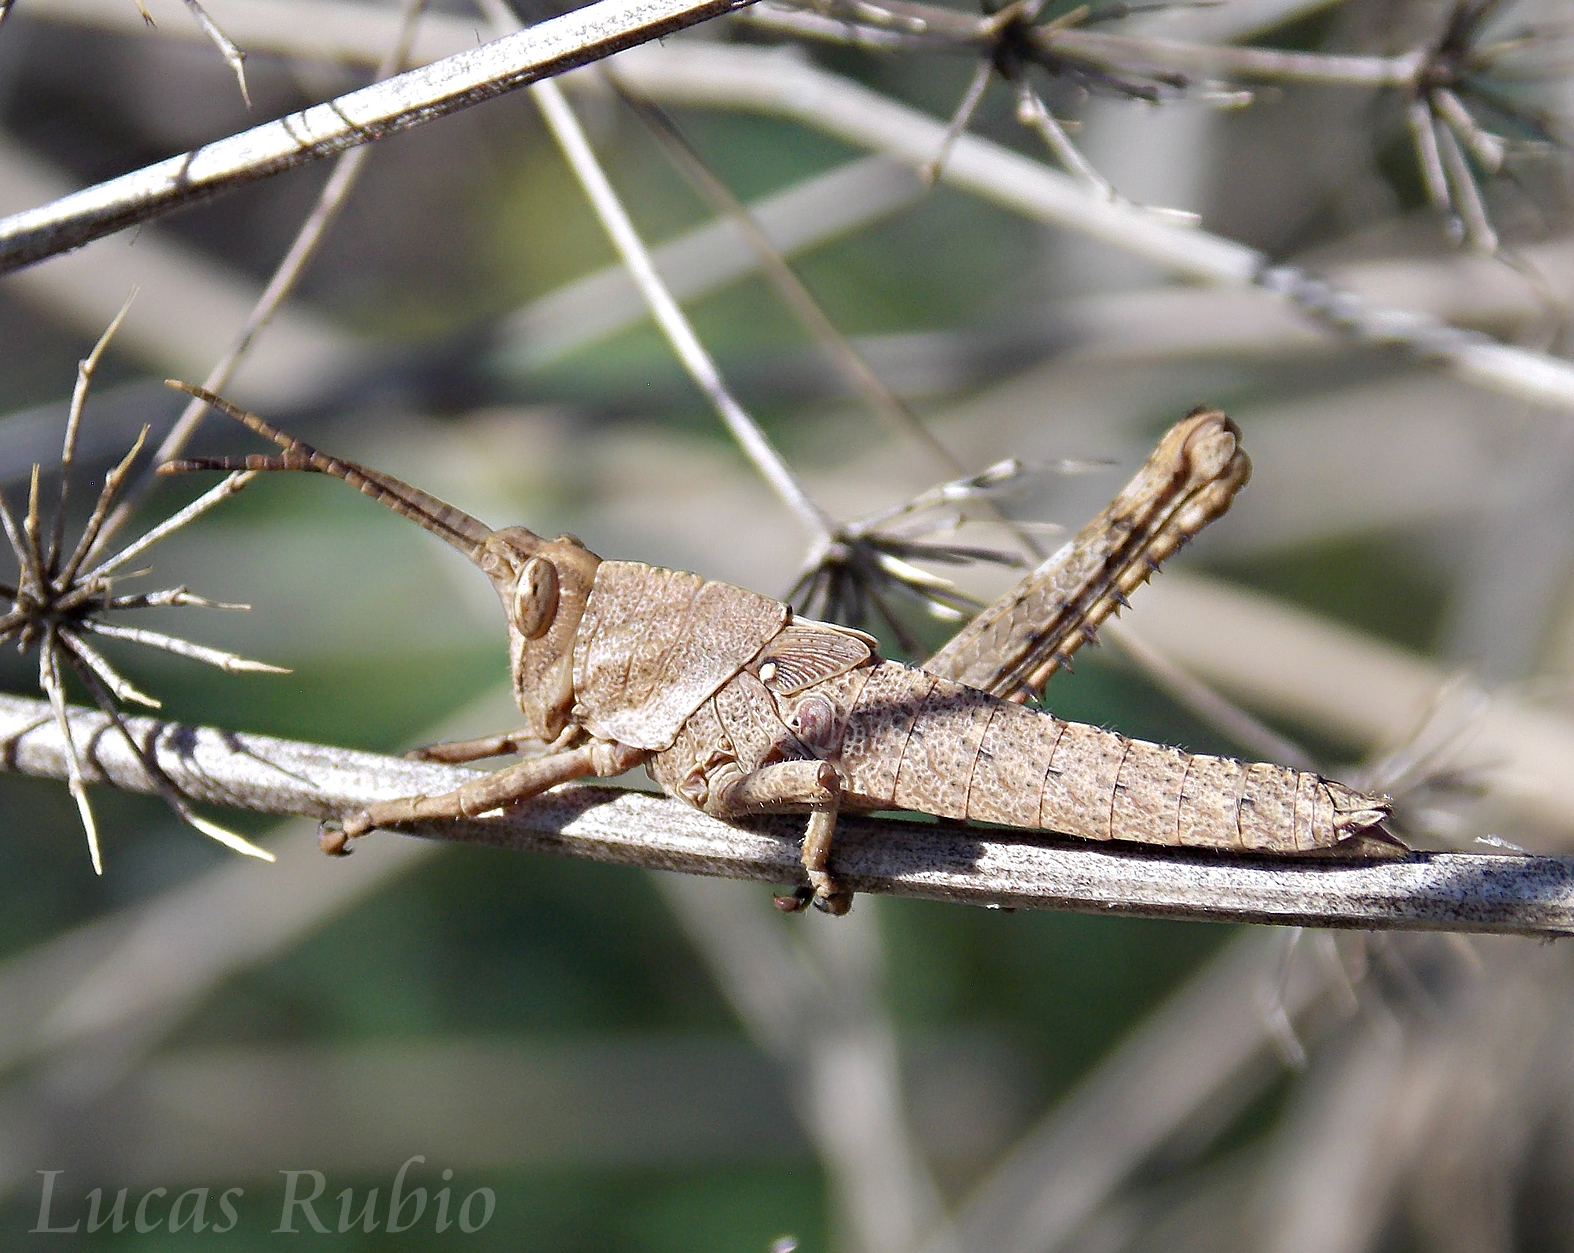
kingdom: Animalia
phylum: Arthropoda
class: Insecta
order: Orthoptera
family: Romaleidae
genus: Coryacris
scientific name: Coryacris angustipennis
